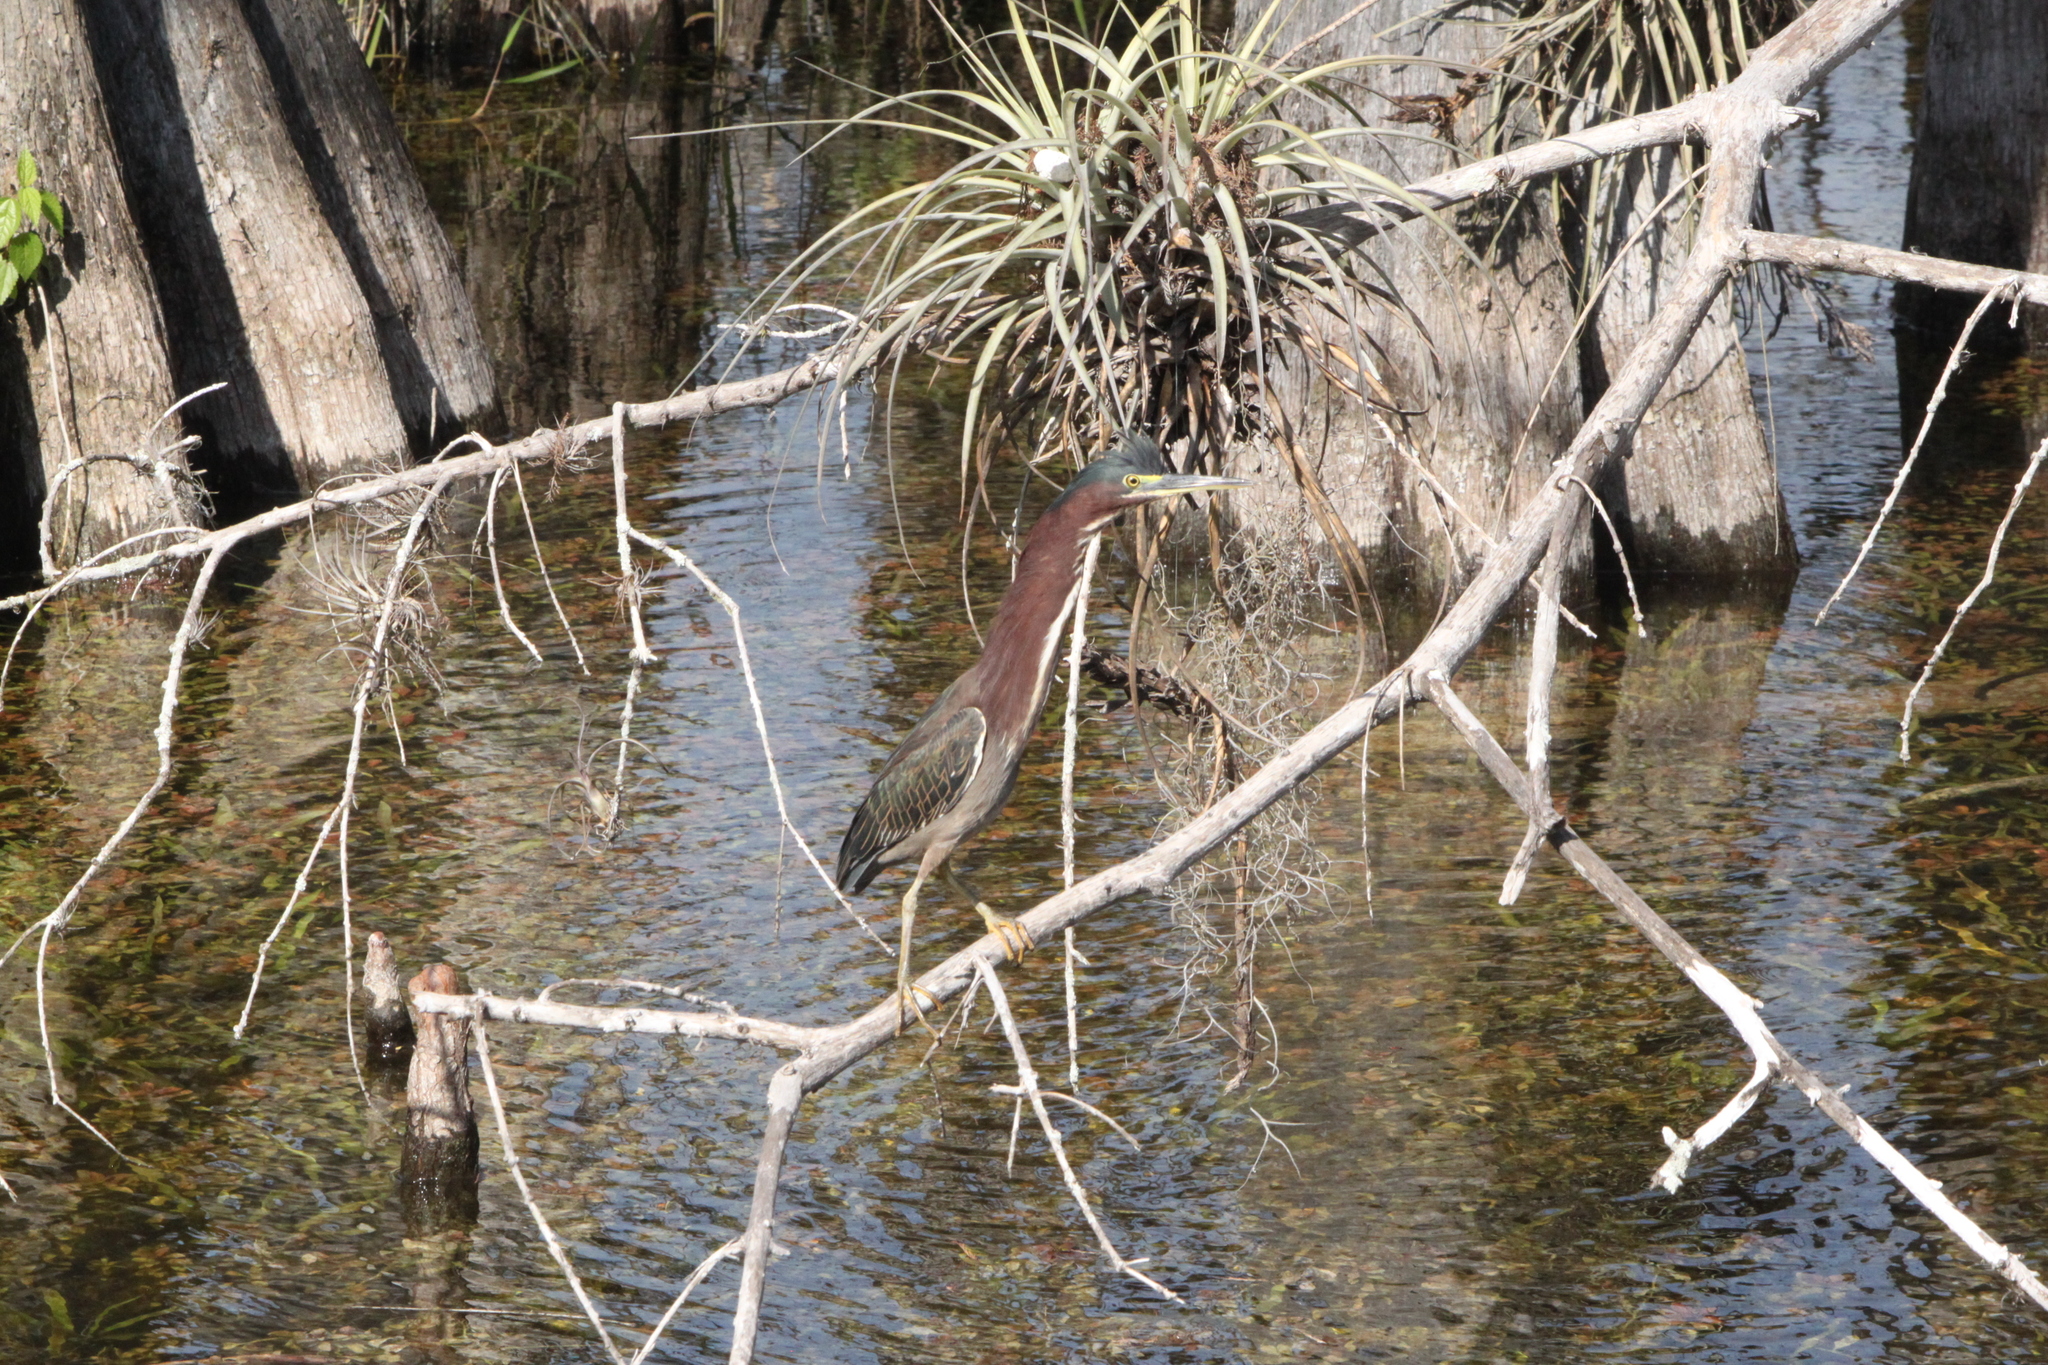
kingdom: Animalia
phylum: Chordata
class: Aves
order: Pelecaniformes
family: Ardeidae
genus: Butorides
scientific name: Butorides virescens
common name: Green heron
